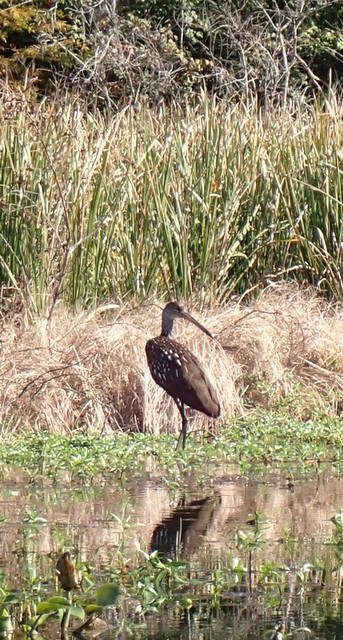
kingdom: Animalia
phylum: Chordata
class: Aves
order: Gruiformes
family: Aramidae
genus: Aramus
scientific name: Aramus guarauna
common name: Limpkin
